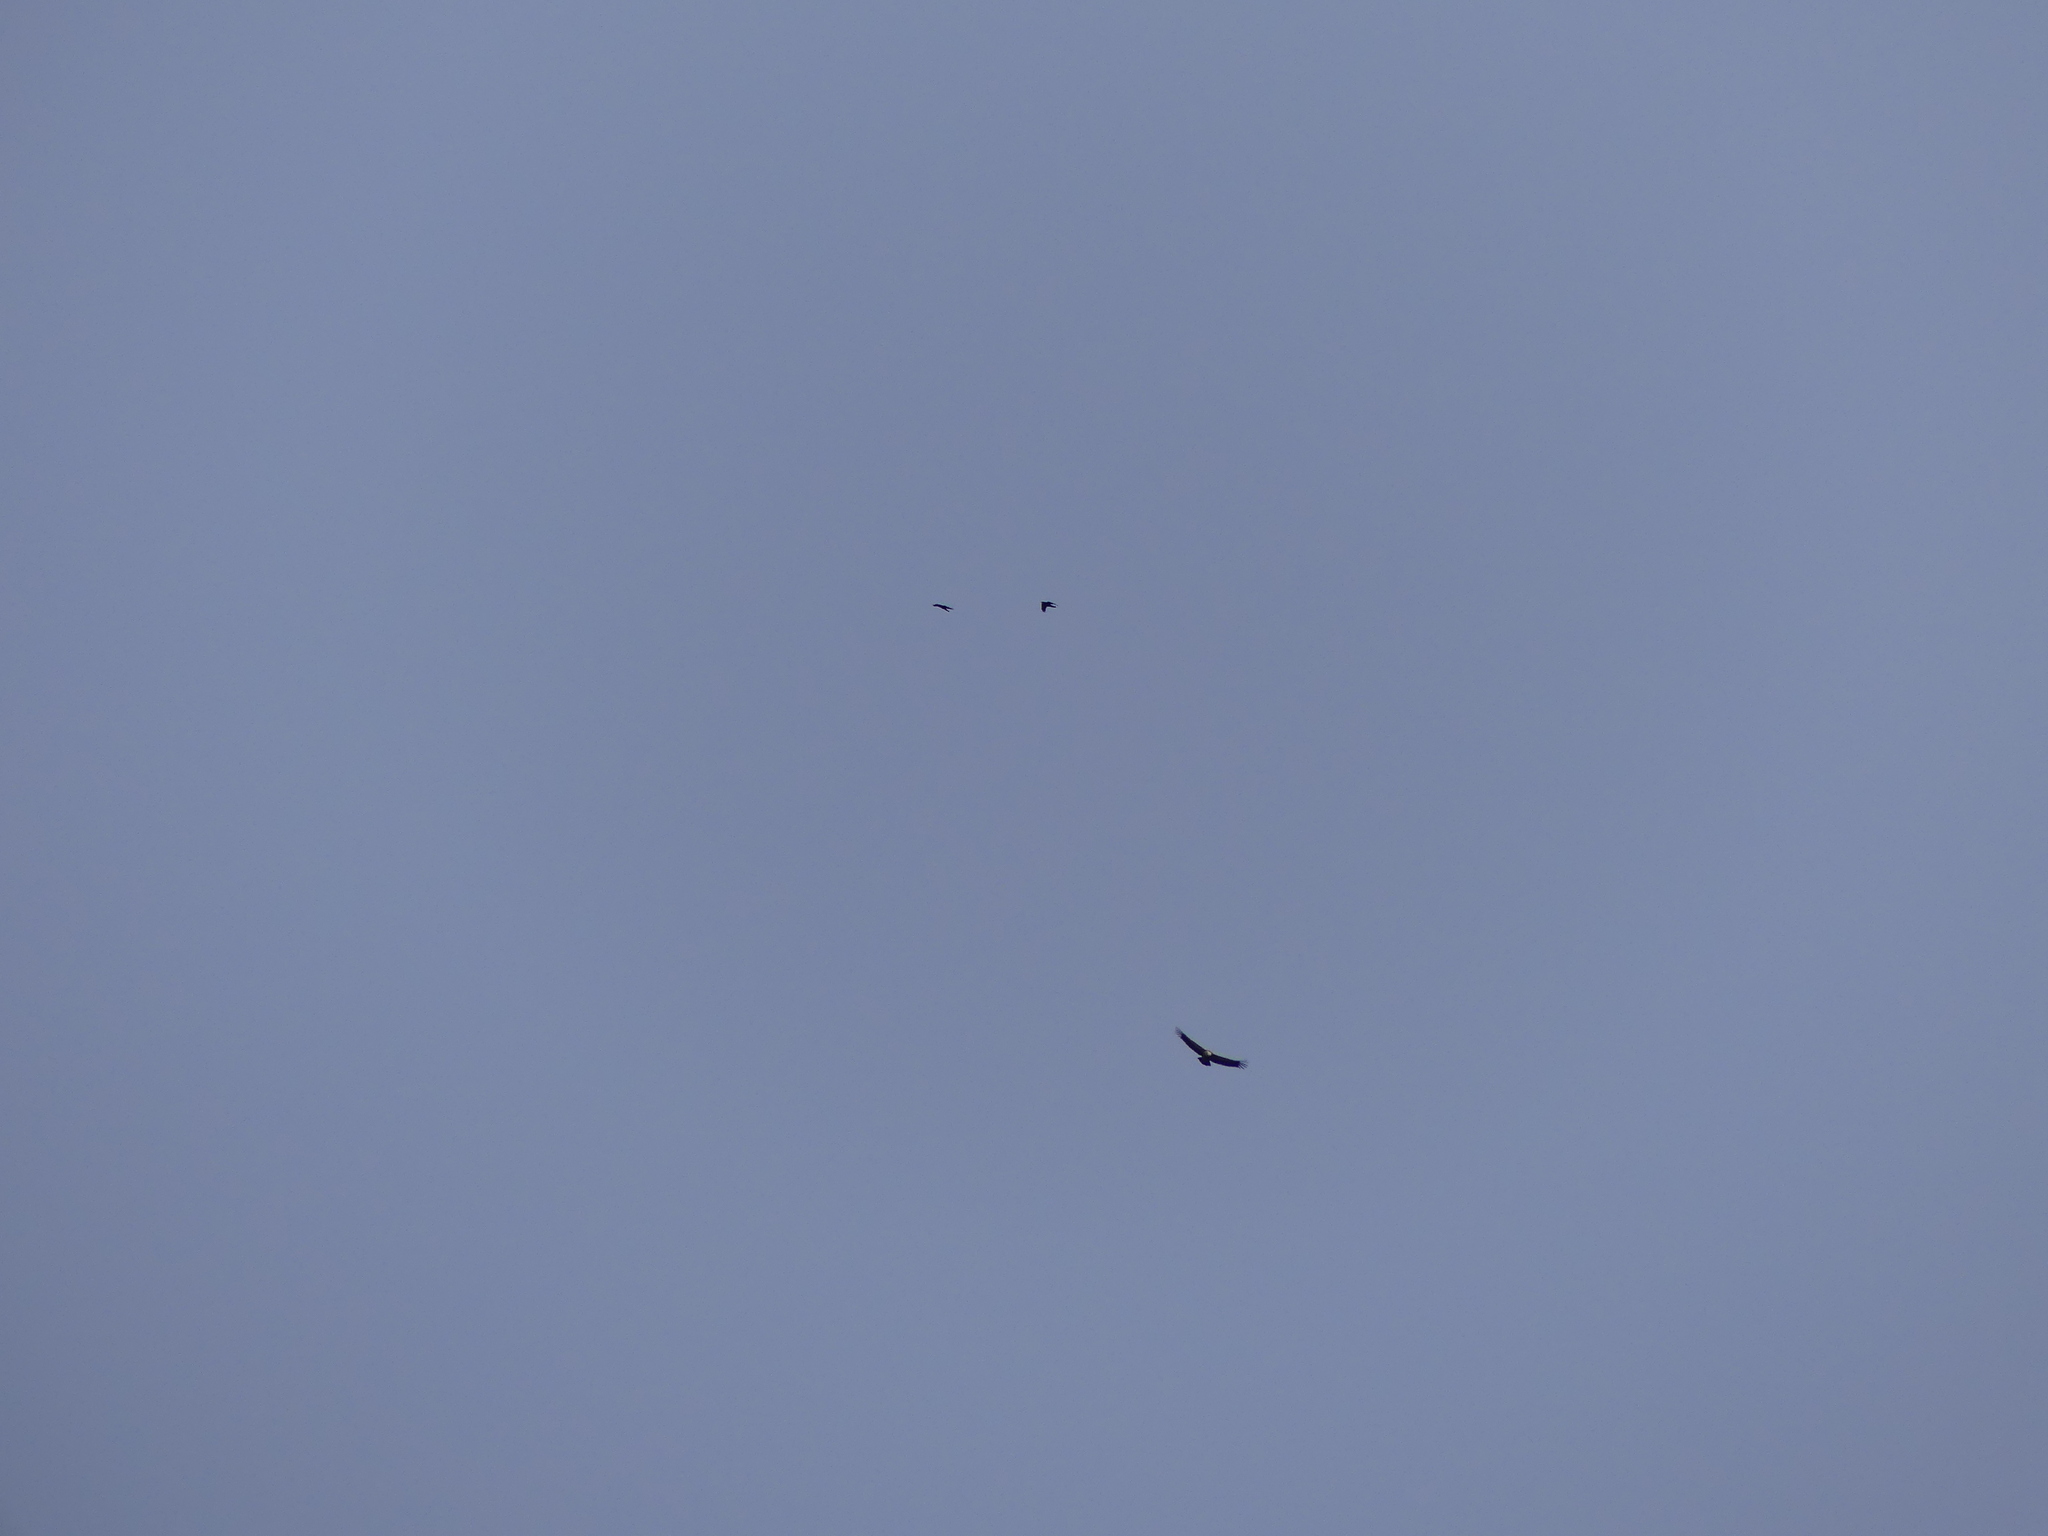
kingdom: Animalia
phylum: Chordata
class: Aves
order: Passeriformes
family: Corvidae
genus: Corvus
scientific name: Corvus corax
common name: Common raven
